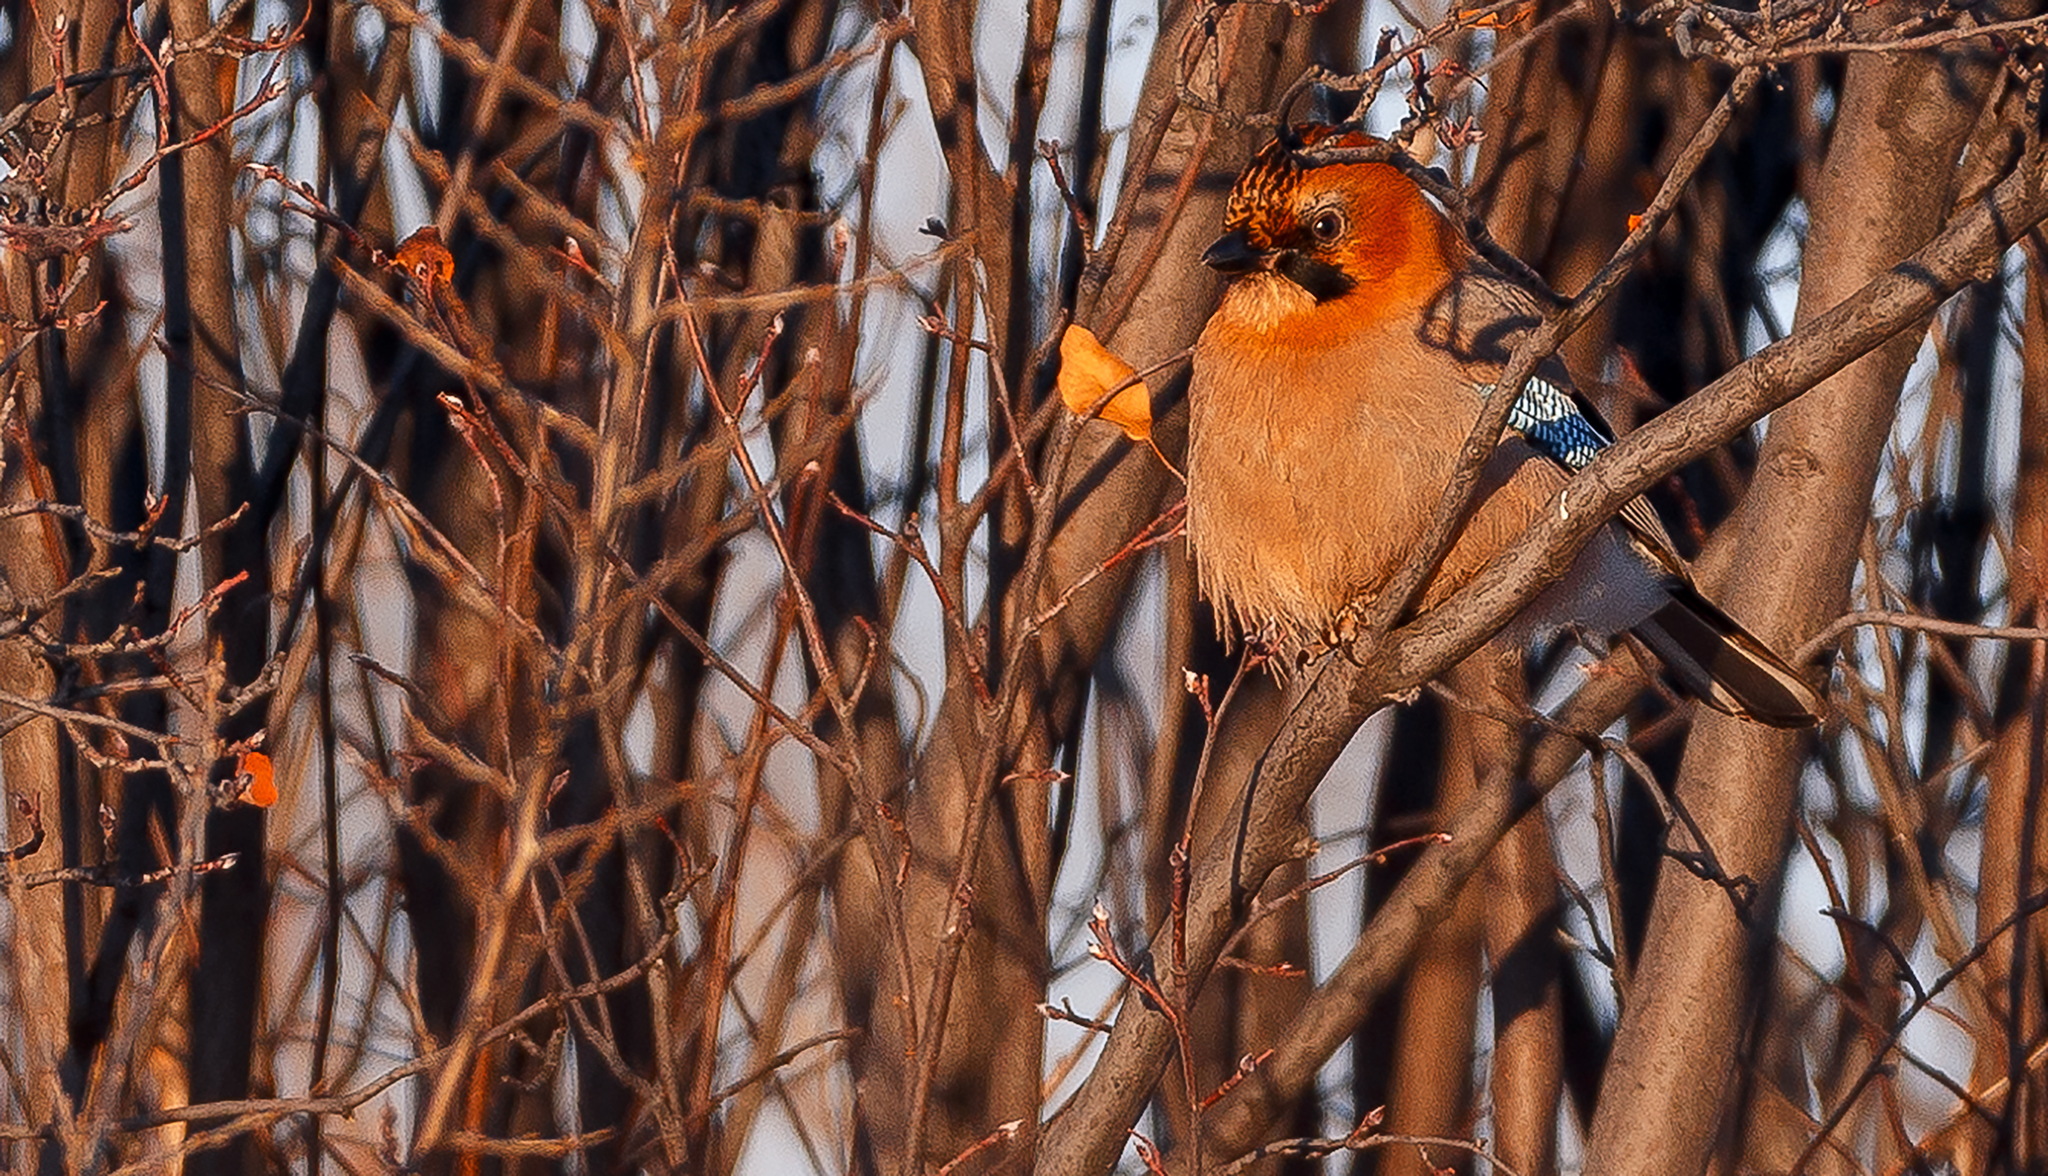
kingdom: Animalia
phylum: Chordata
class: Aves
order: Passeriformes
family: Corvidae
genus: Garrulus
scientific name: Garrulus glandarius
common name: Eurasian jay
